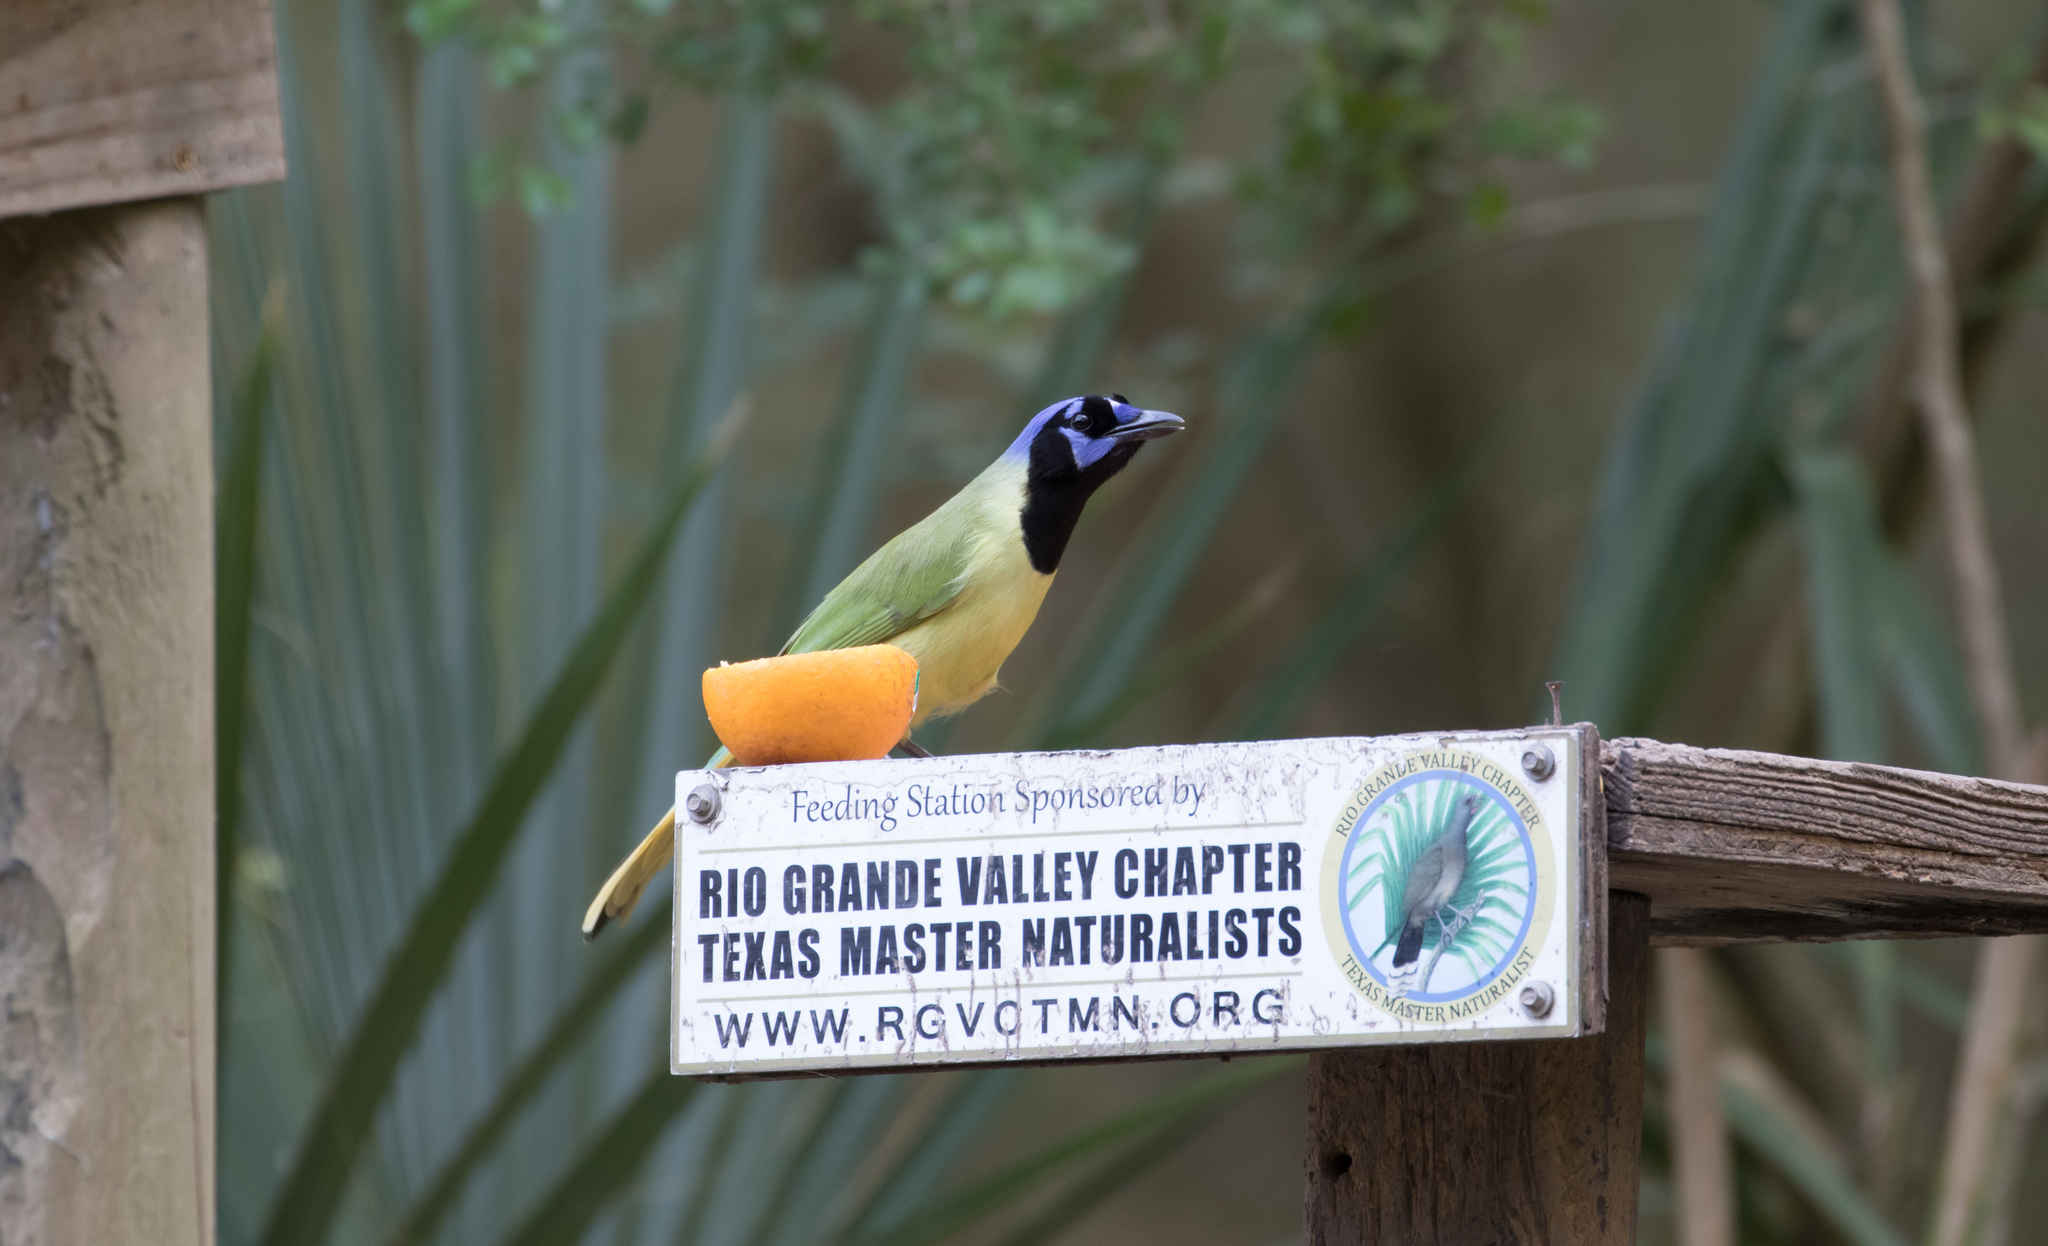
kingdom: Animalia
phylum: Chordata
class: Aves
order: Passeriformes
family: Corvidae
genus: Cyanocorax
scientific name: Cyanocorax yncas
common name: Green jay
